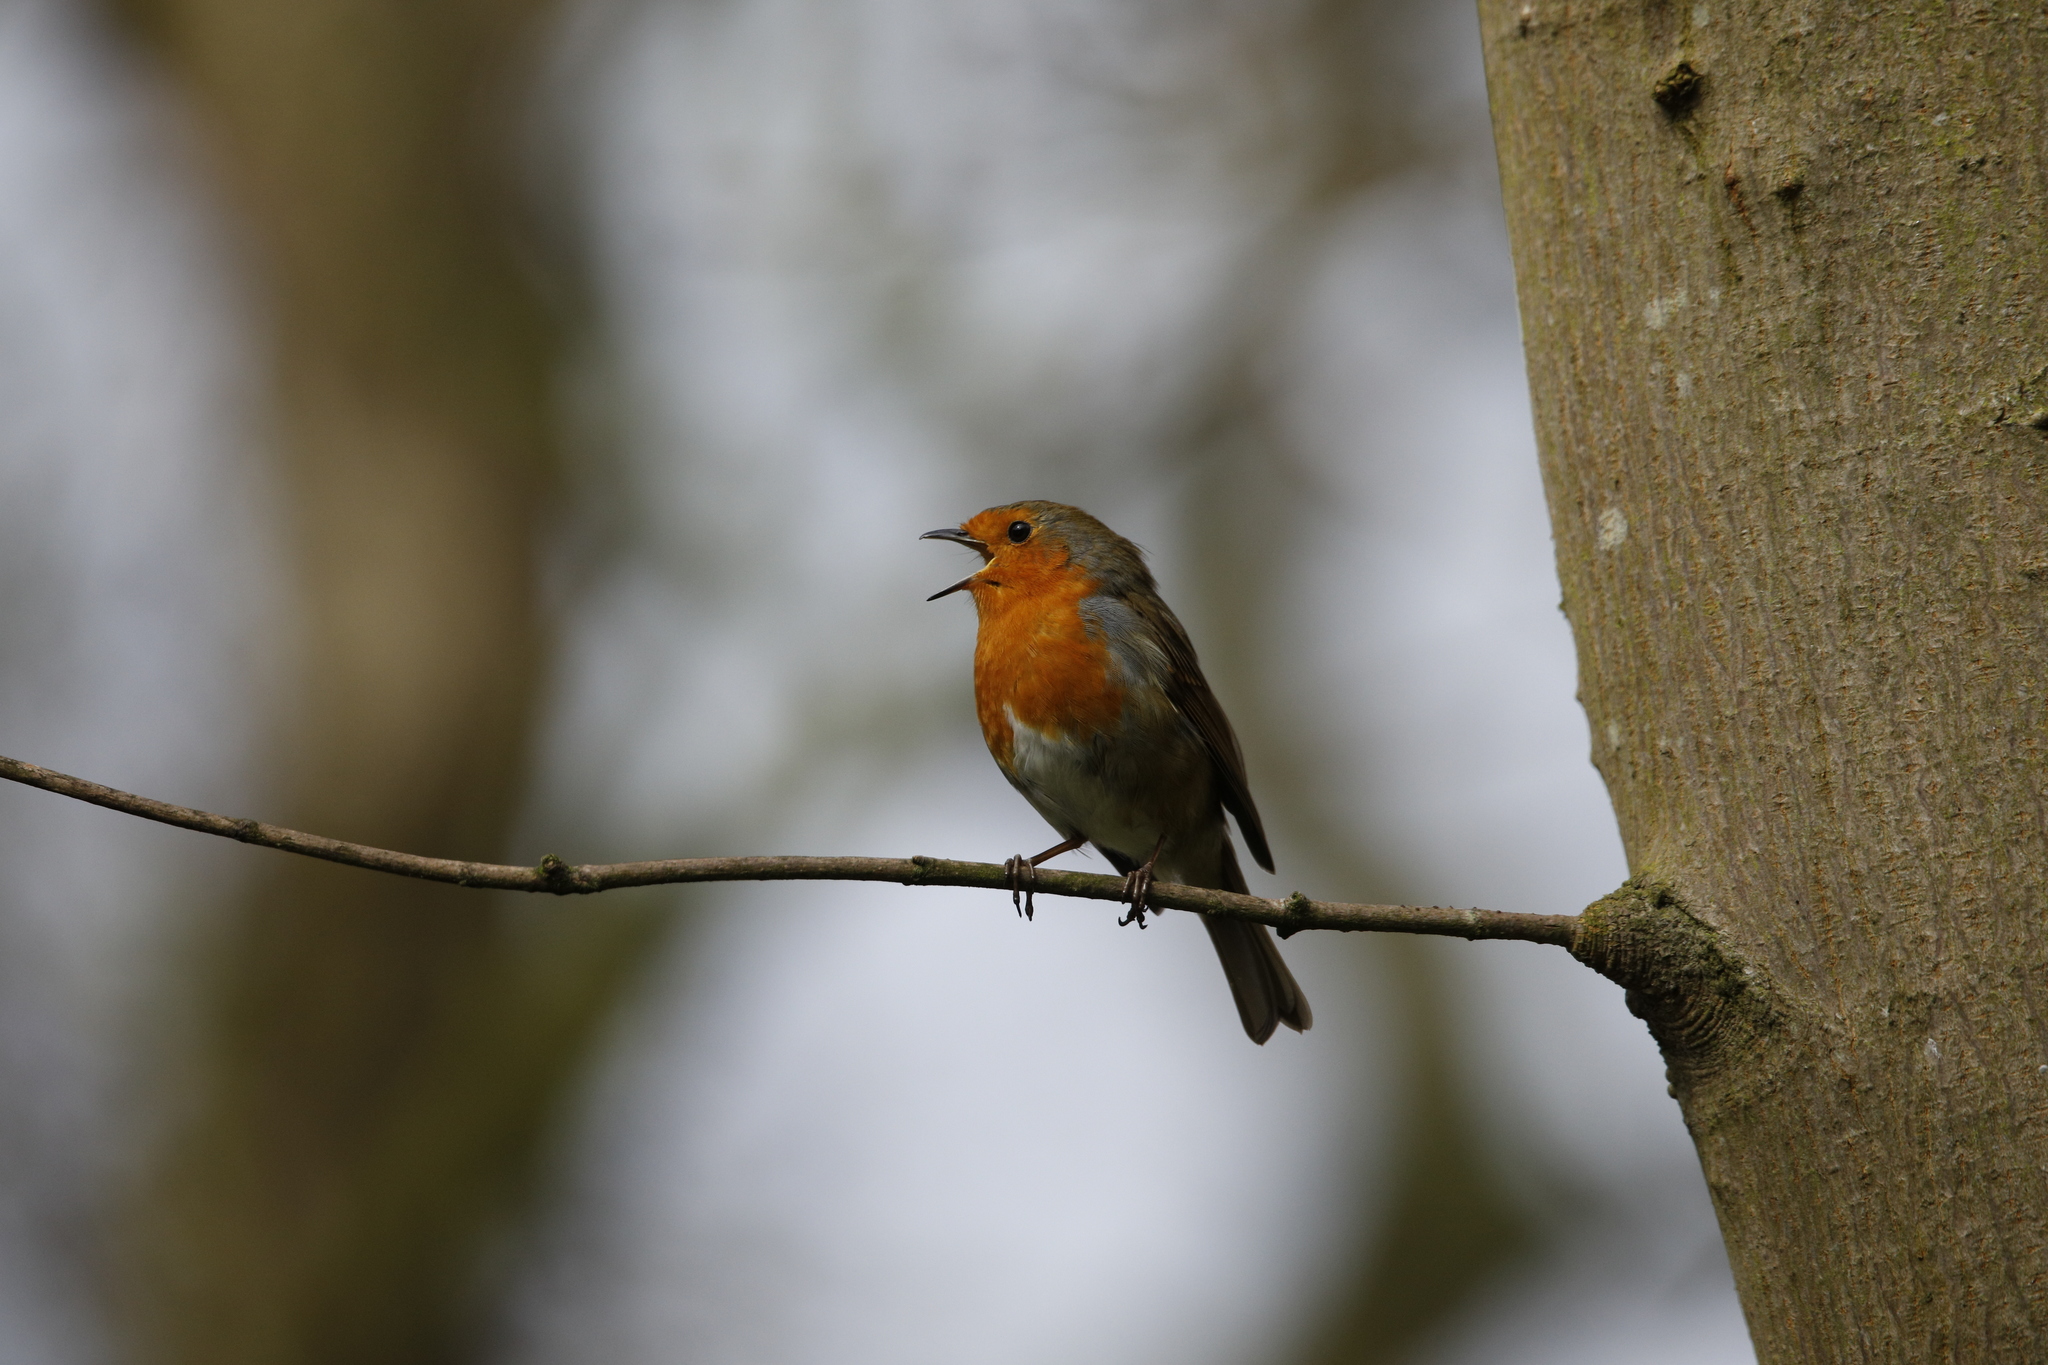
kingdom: Animalia
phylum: Chordata
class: Aves
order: Passeriformes
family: Muscicapidae
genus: Erithacus
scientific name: Erithacus rubecula
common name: European robin
